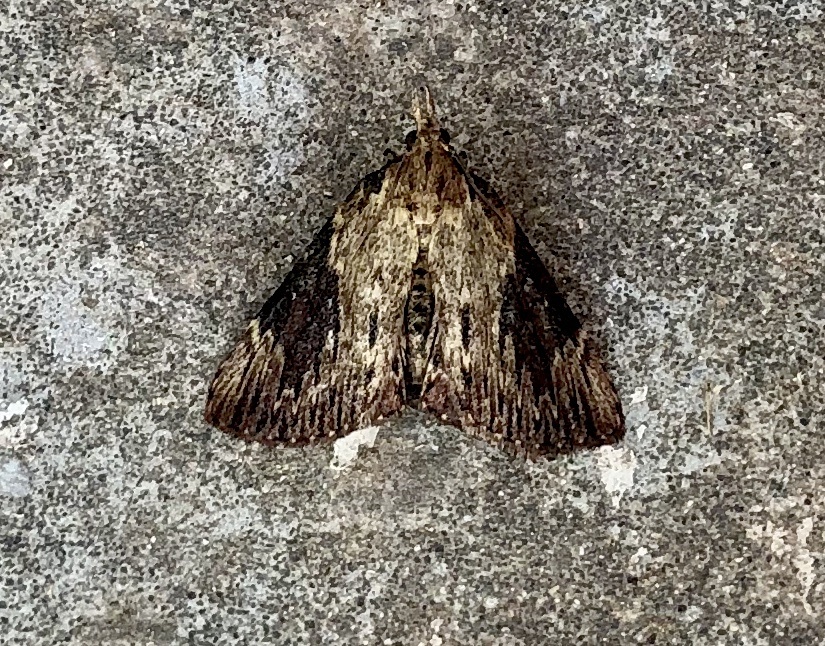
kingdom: Animalia
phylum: Arthropoda
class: Insecta
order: Lepidoptera
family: Pyralidae
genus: Omphalocera
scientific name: Omphalocera cariosa
